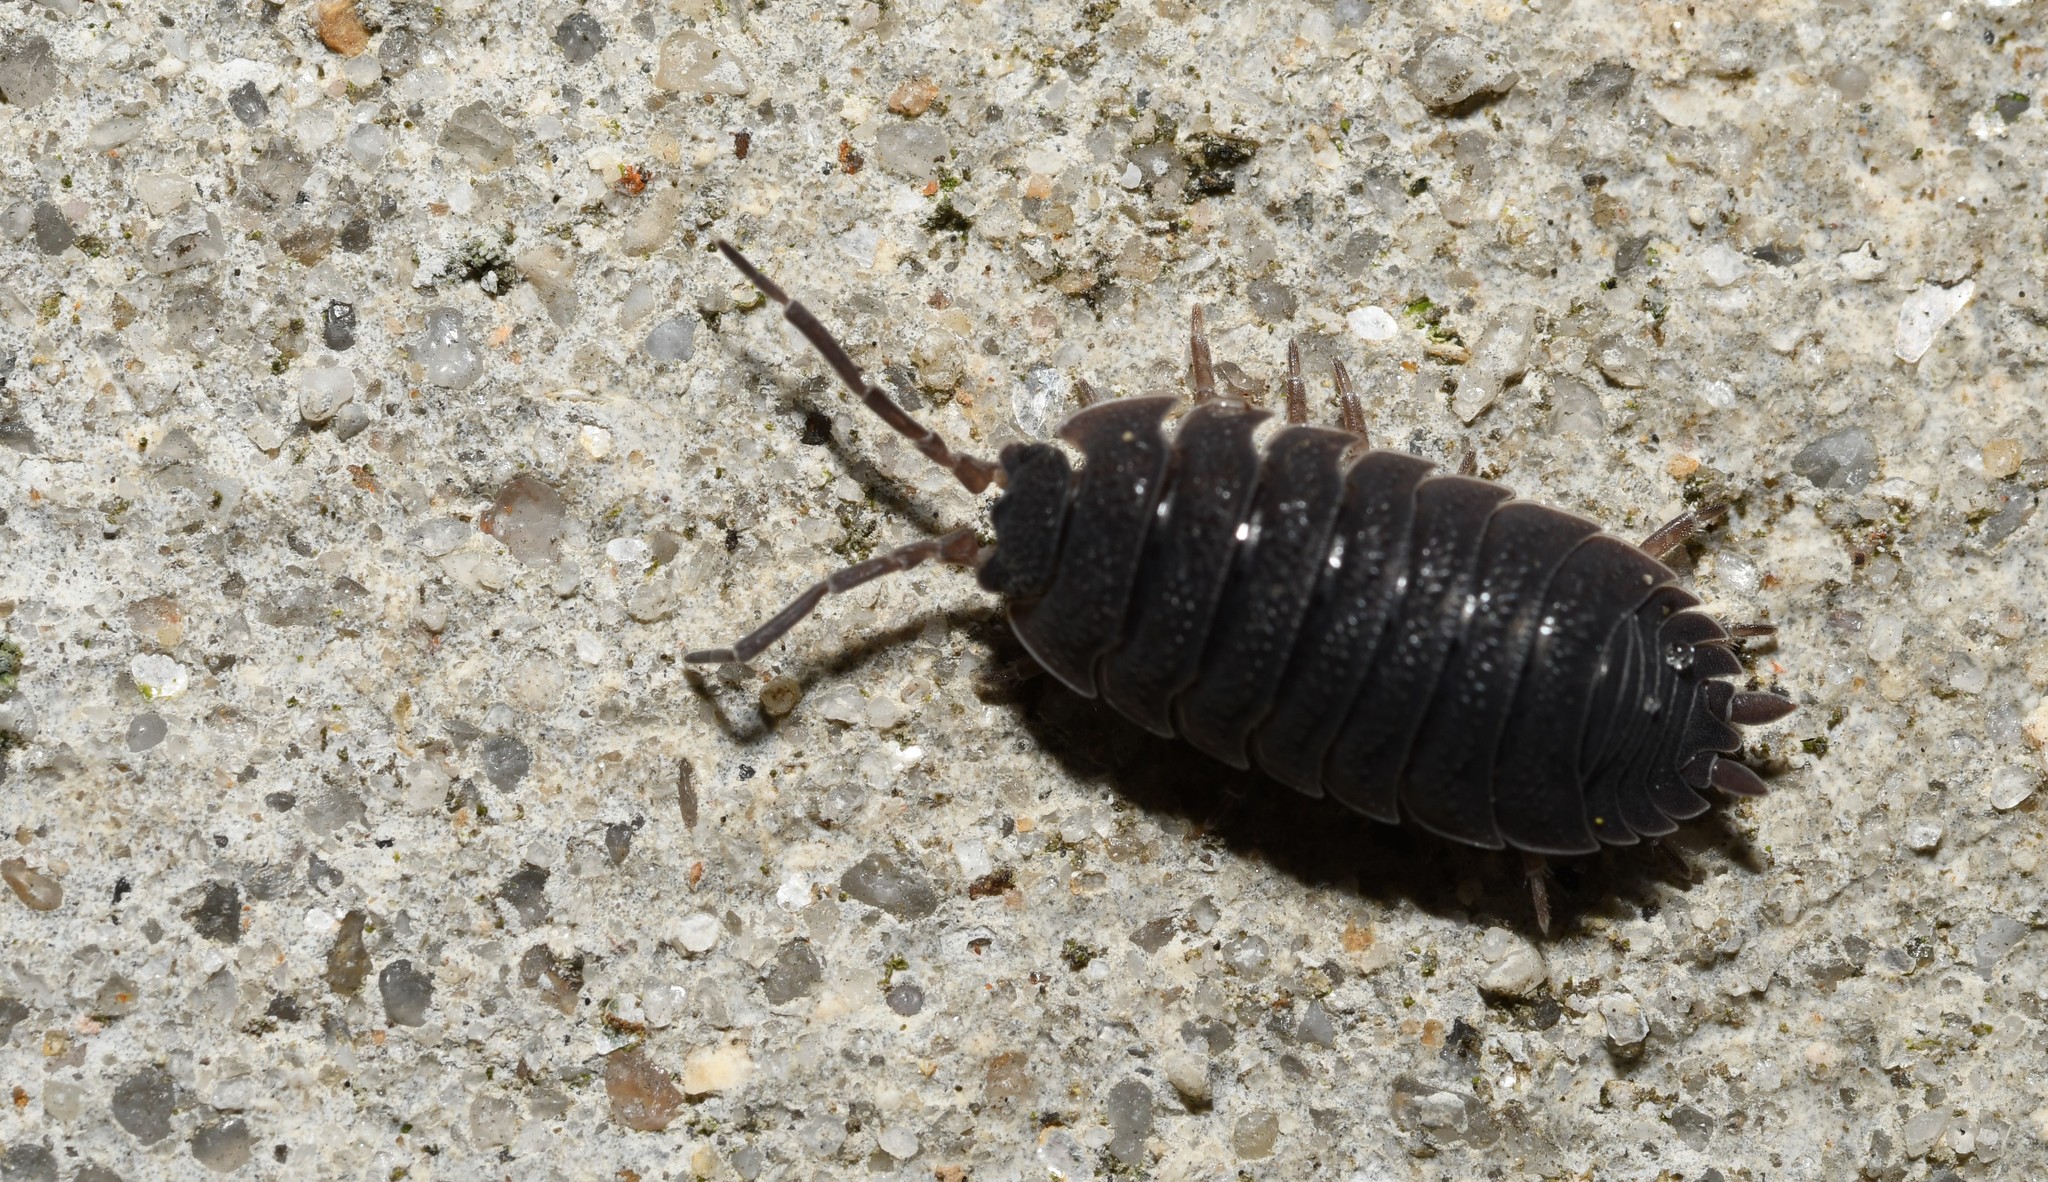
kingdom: Animalia
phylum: Arthropoda
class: Malacostraca
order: Isopoda
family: Porcellionidae
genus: Porcellio
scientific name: Porcellio scaber
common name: Common rough woodlouse
